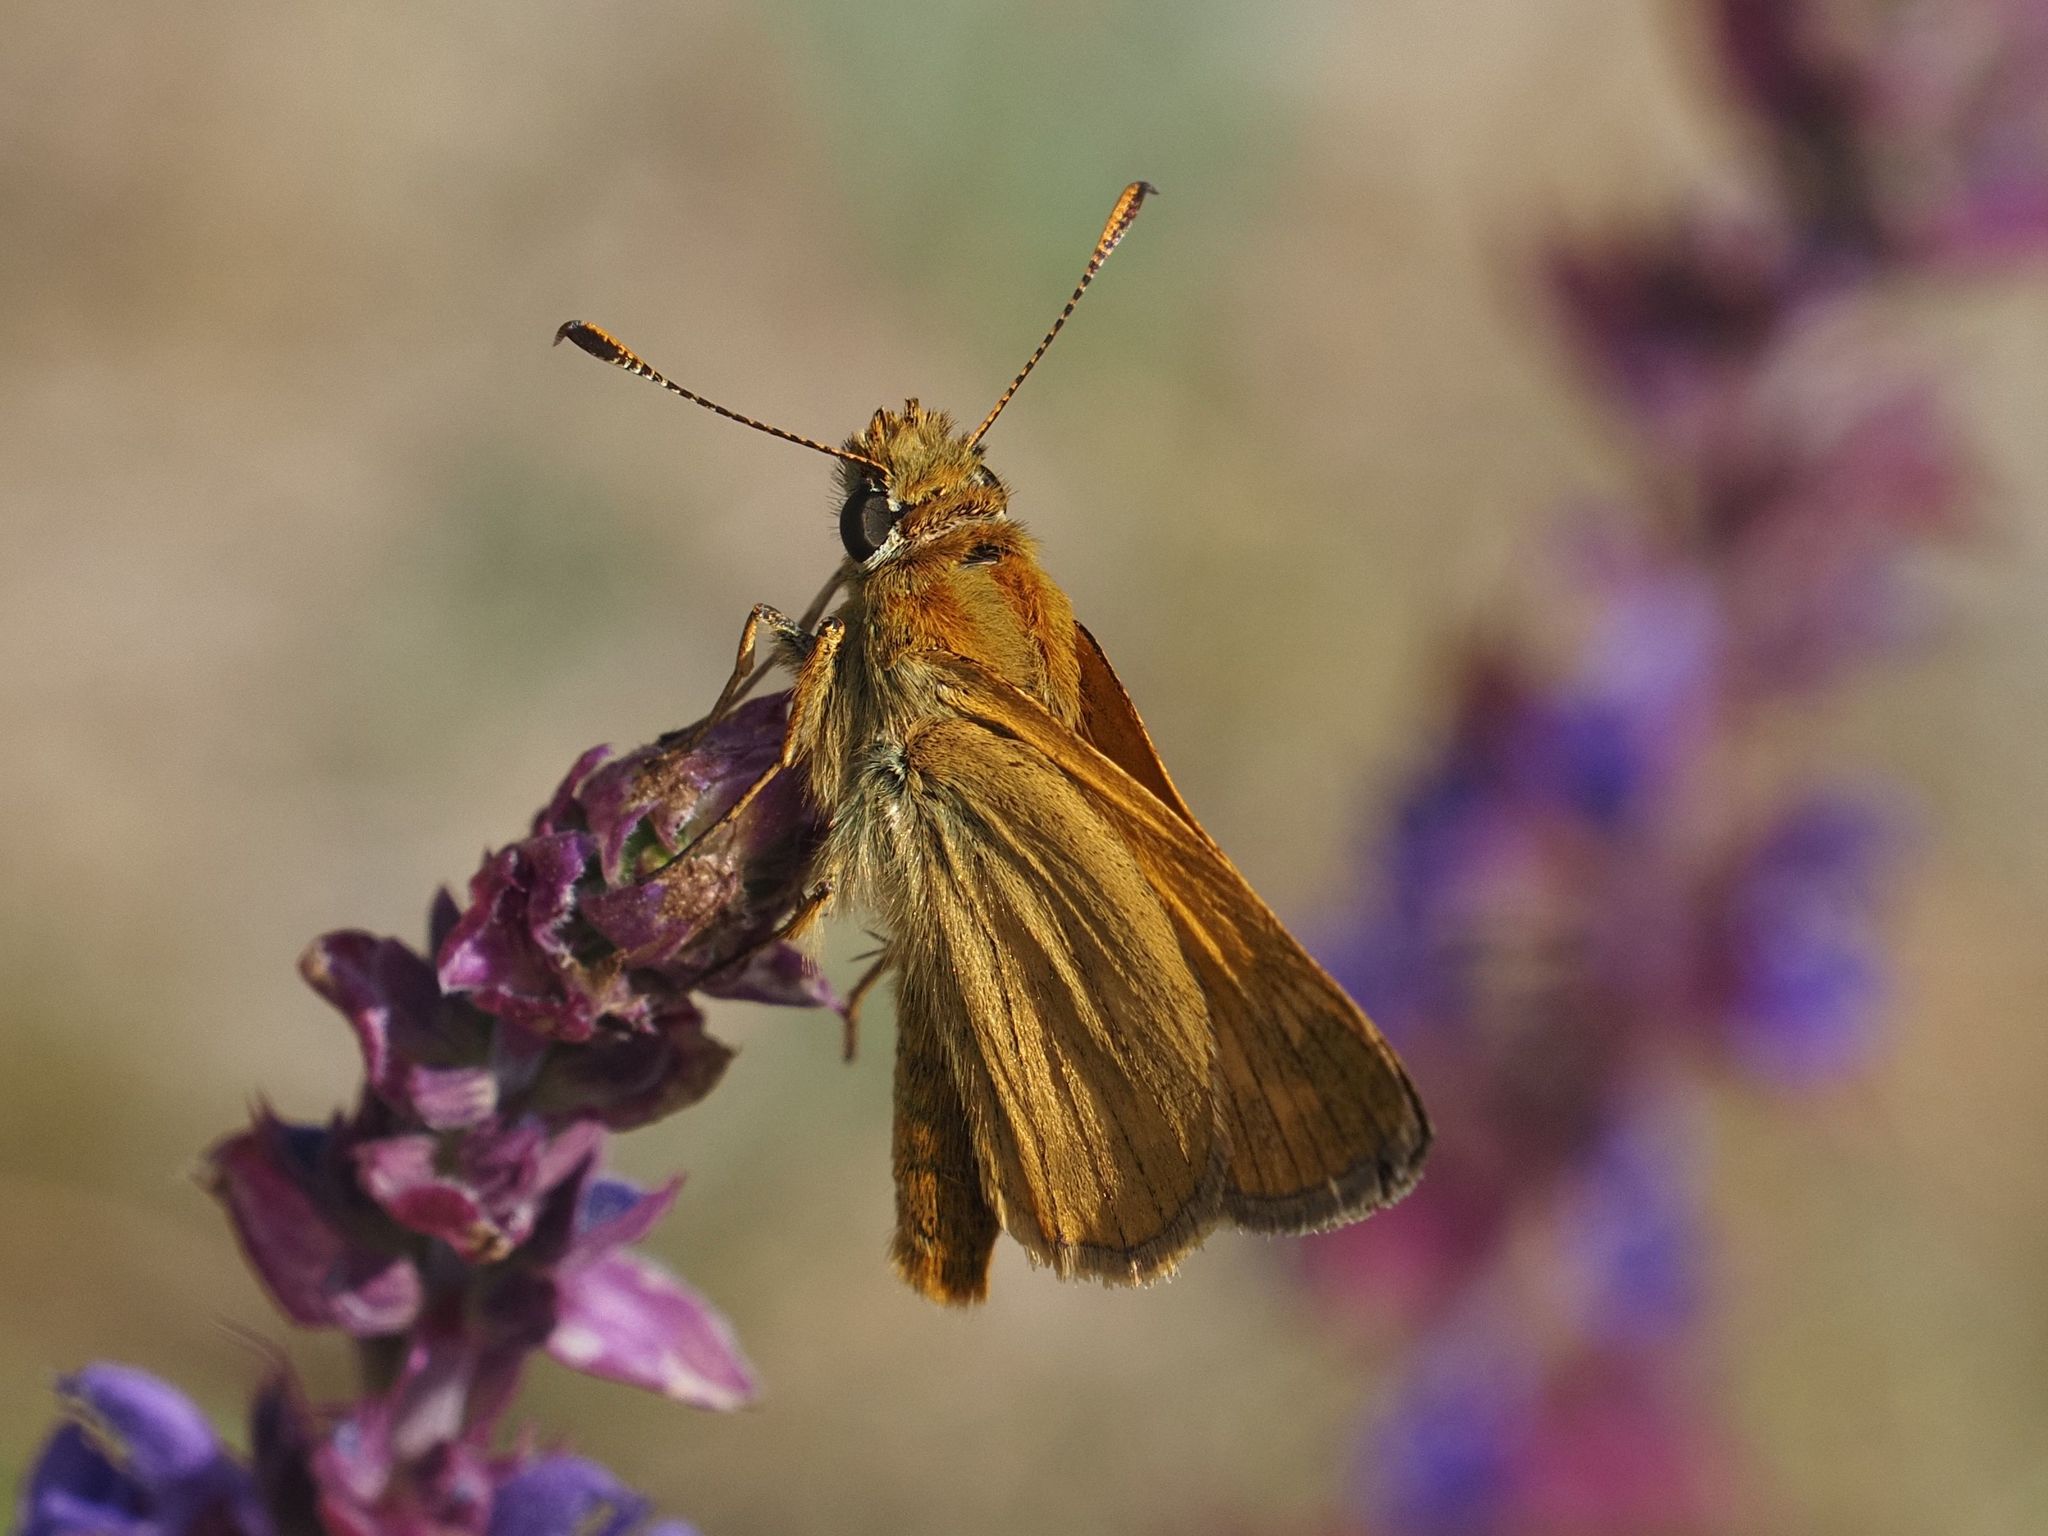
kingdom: Animalia
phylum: Arthropoda
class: Insecta
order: Lepidoptera
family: Hesperiidae
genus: Ochlodes
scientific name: Ochlodes venata
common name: Large skipper
